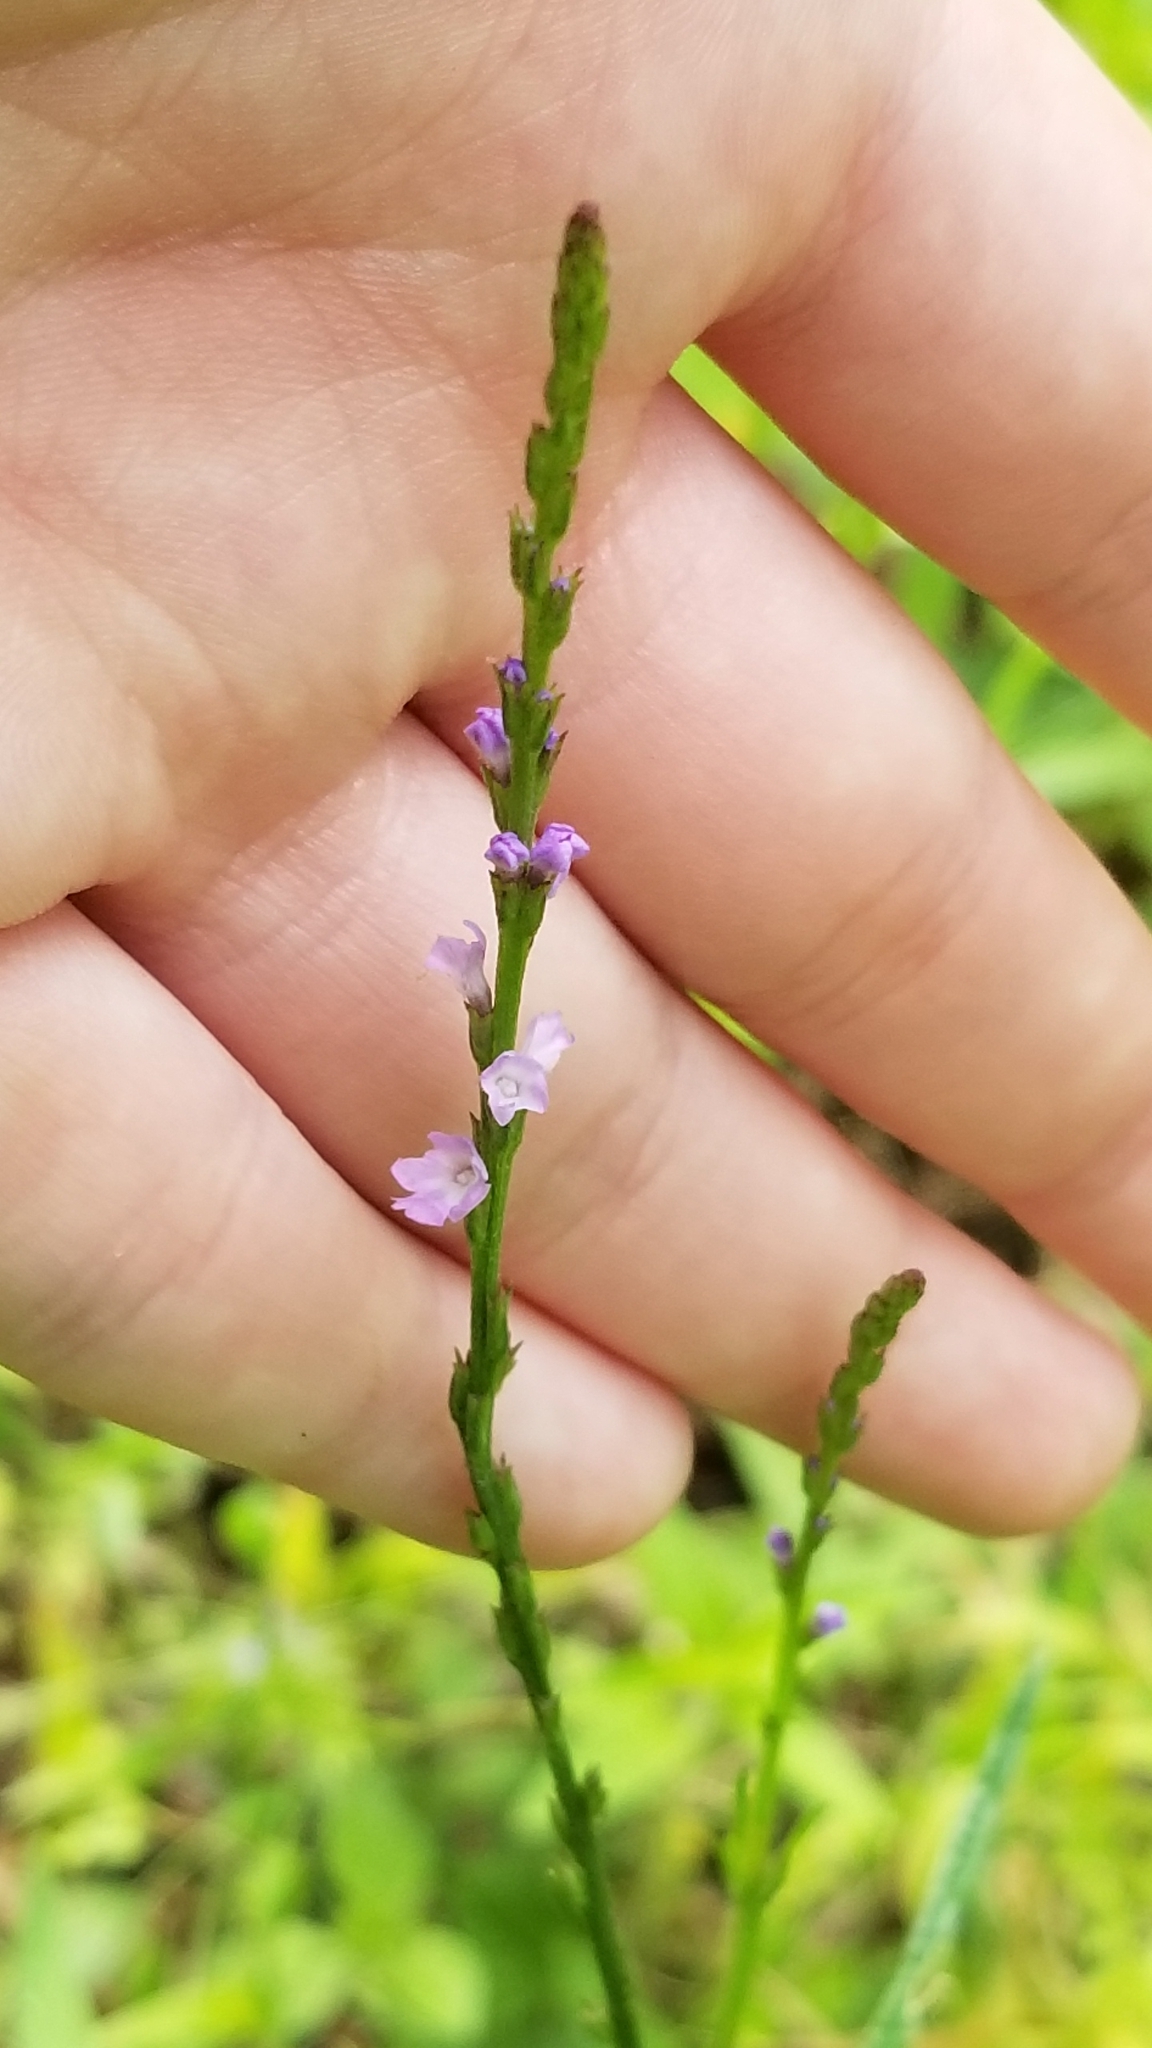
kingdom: Plantae
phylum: Tracheophyta
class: Magnoliopsida
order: Lamiales
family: Verbenaceae
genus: Verbena
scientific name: Verbena halei
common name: Texas vervain
